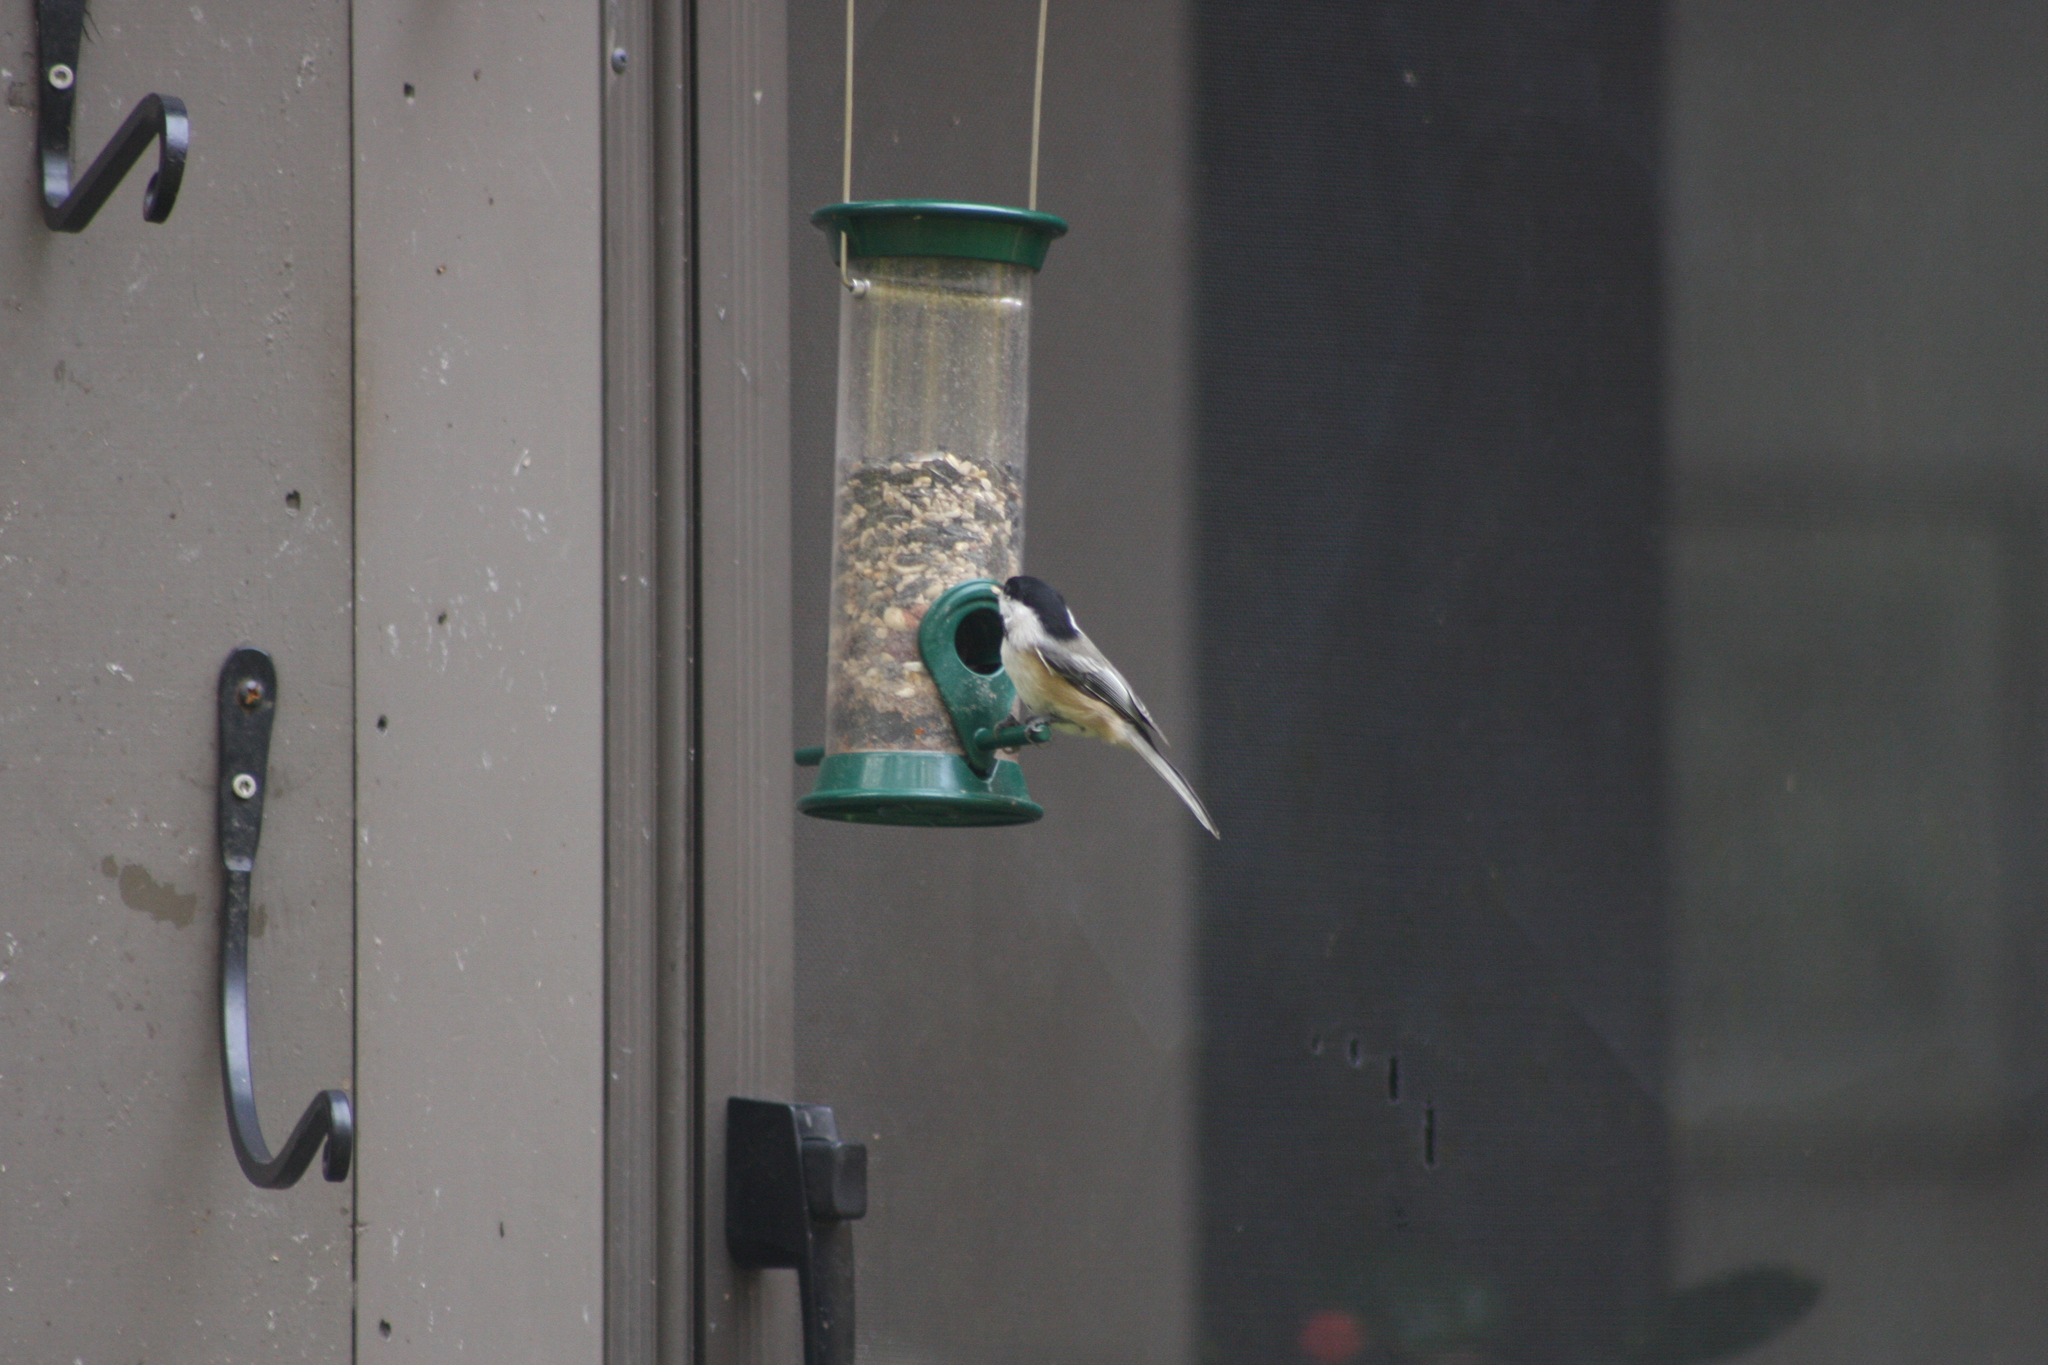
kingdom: Animalia
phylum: Chordata
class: Aves
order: Passeriformes
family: Paridae
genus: Poecile
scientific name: Poecile atricapillus
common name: Black-capped chickadee
